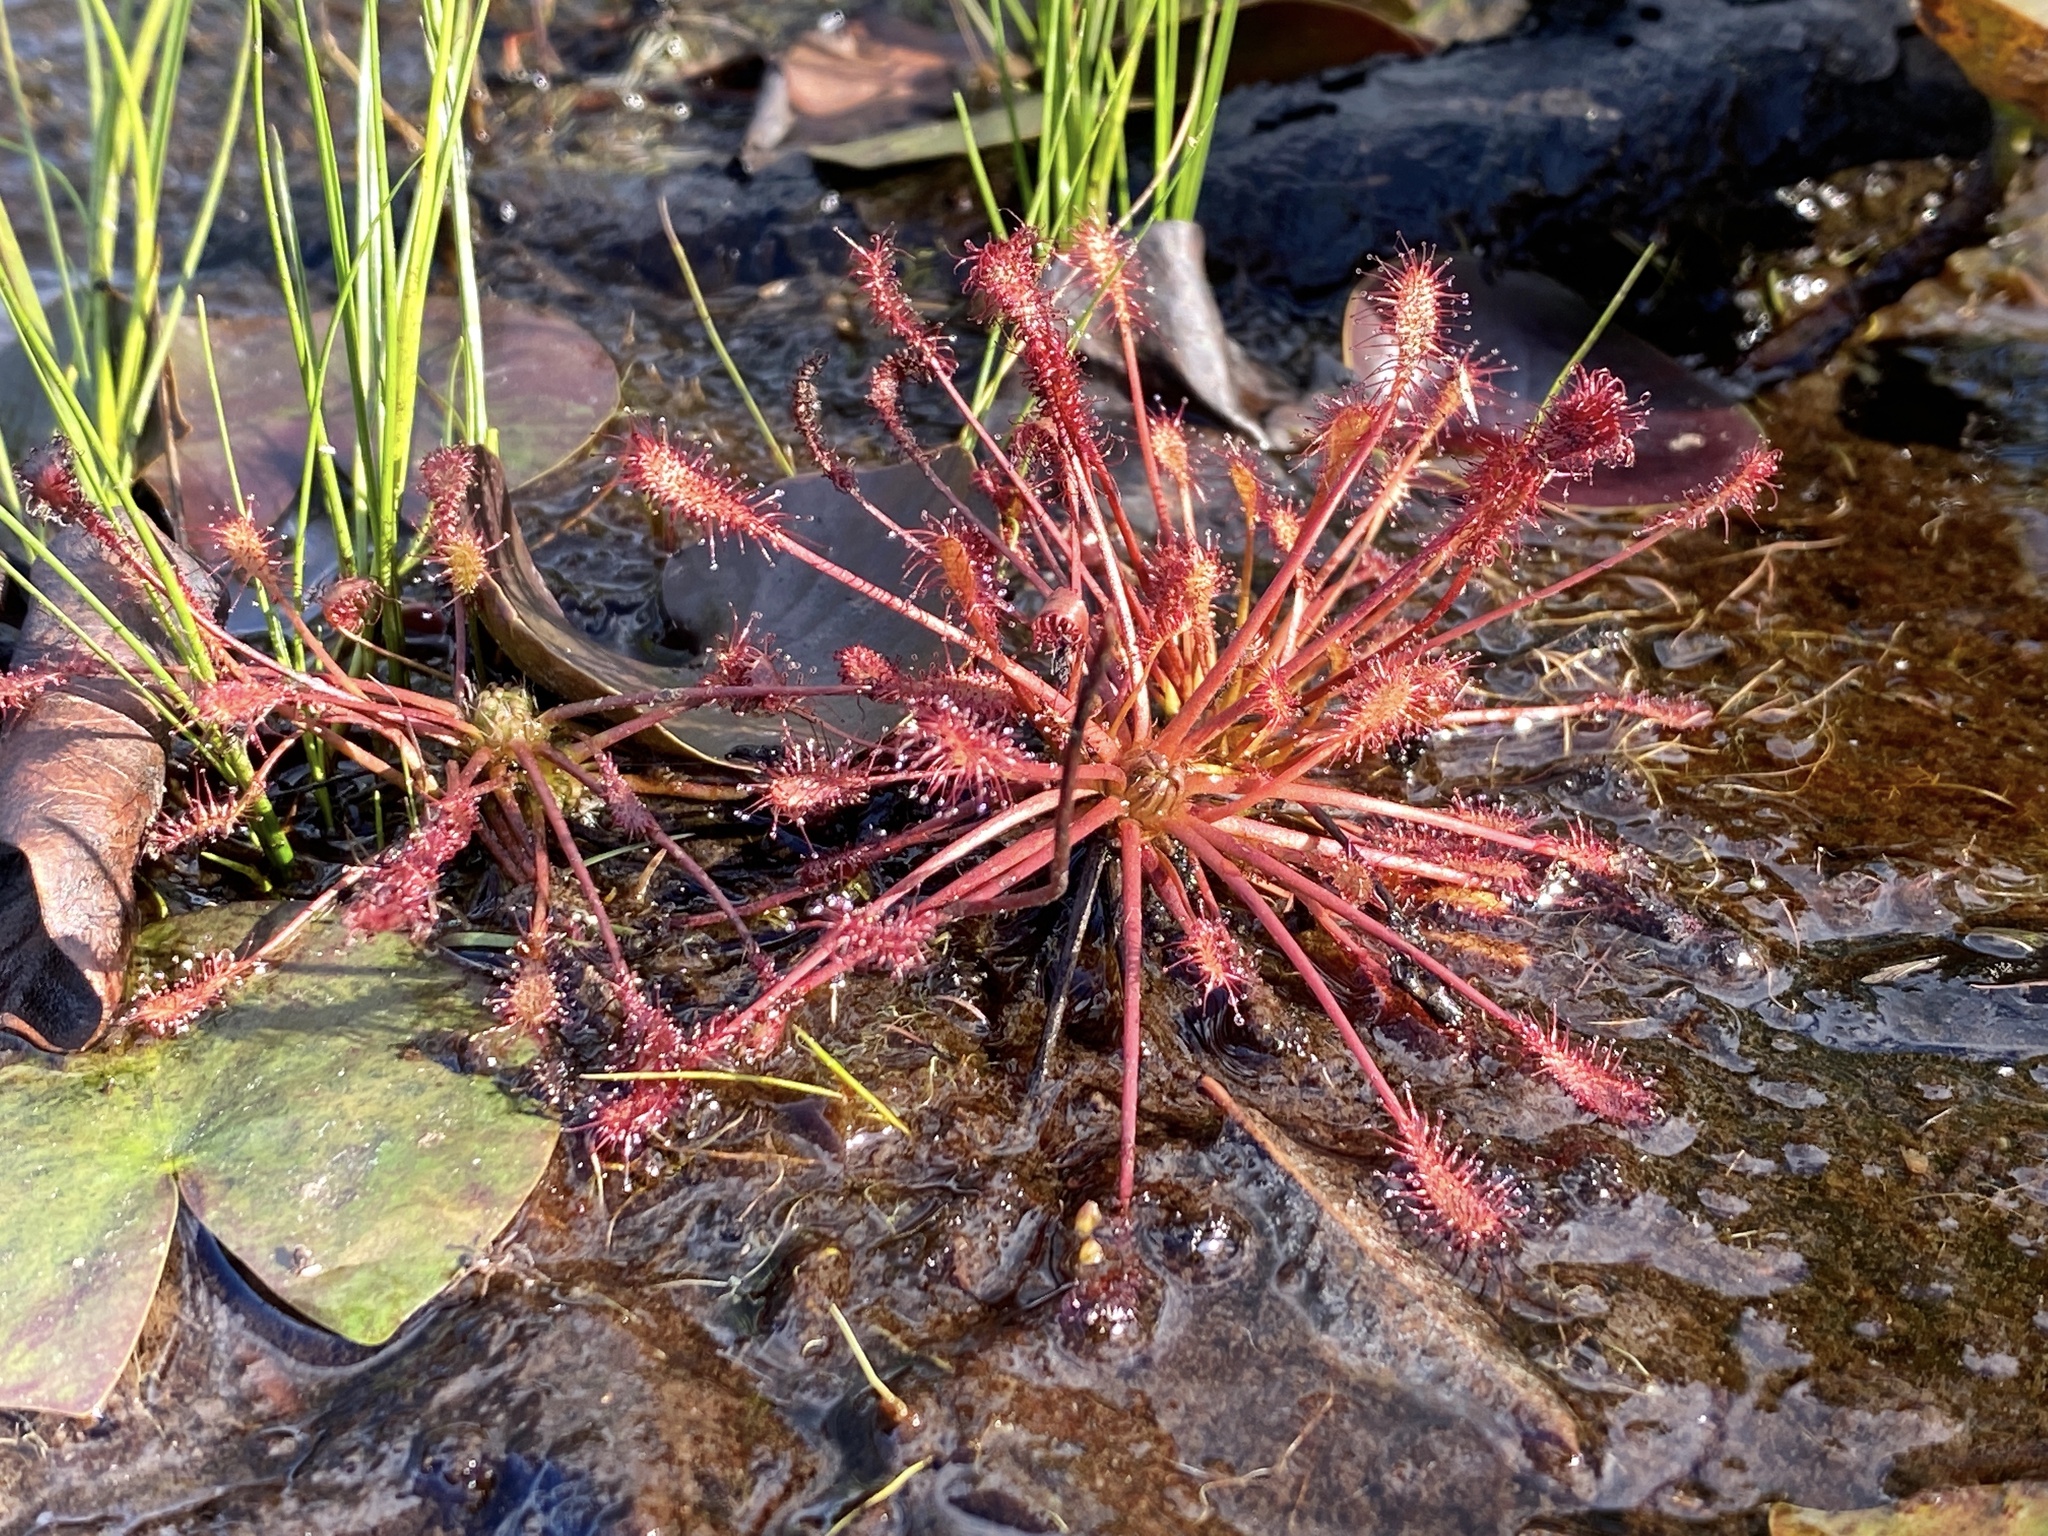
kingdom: Plantae
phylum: Tracheophyta
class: Magnoliopsida
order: Caryophyllales
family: Droseraceae
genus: Drosera
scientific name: Drosera intermedia
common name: Oblong-leaved sundew
